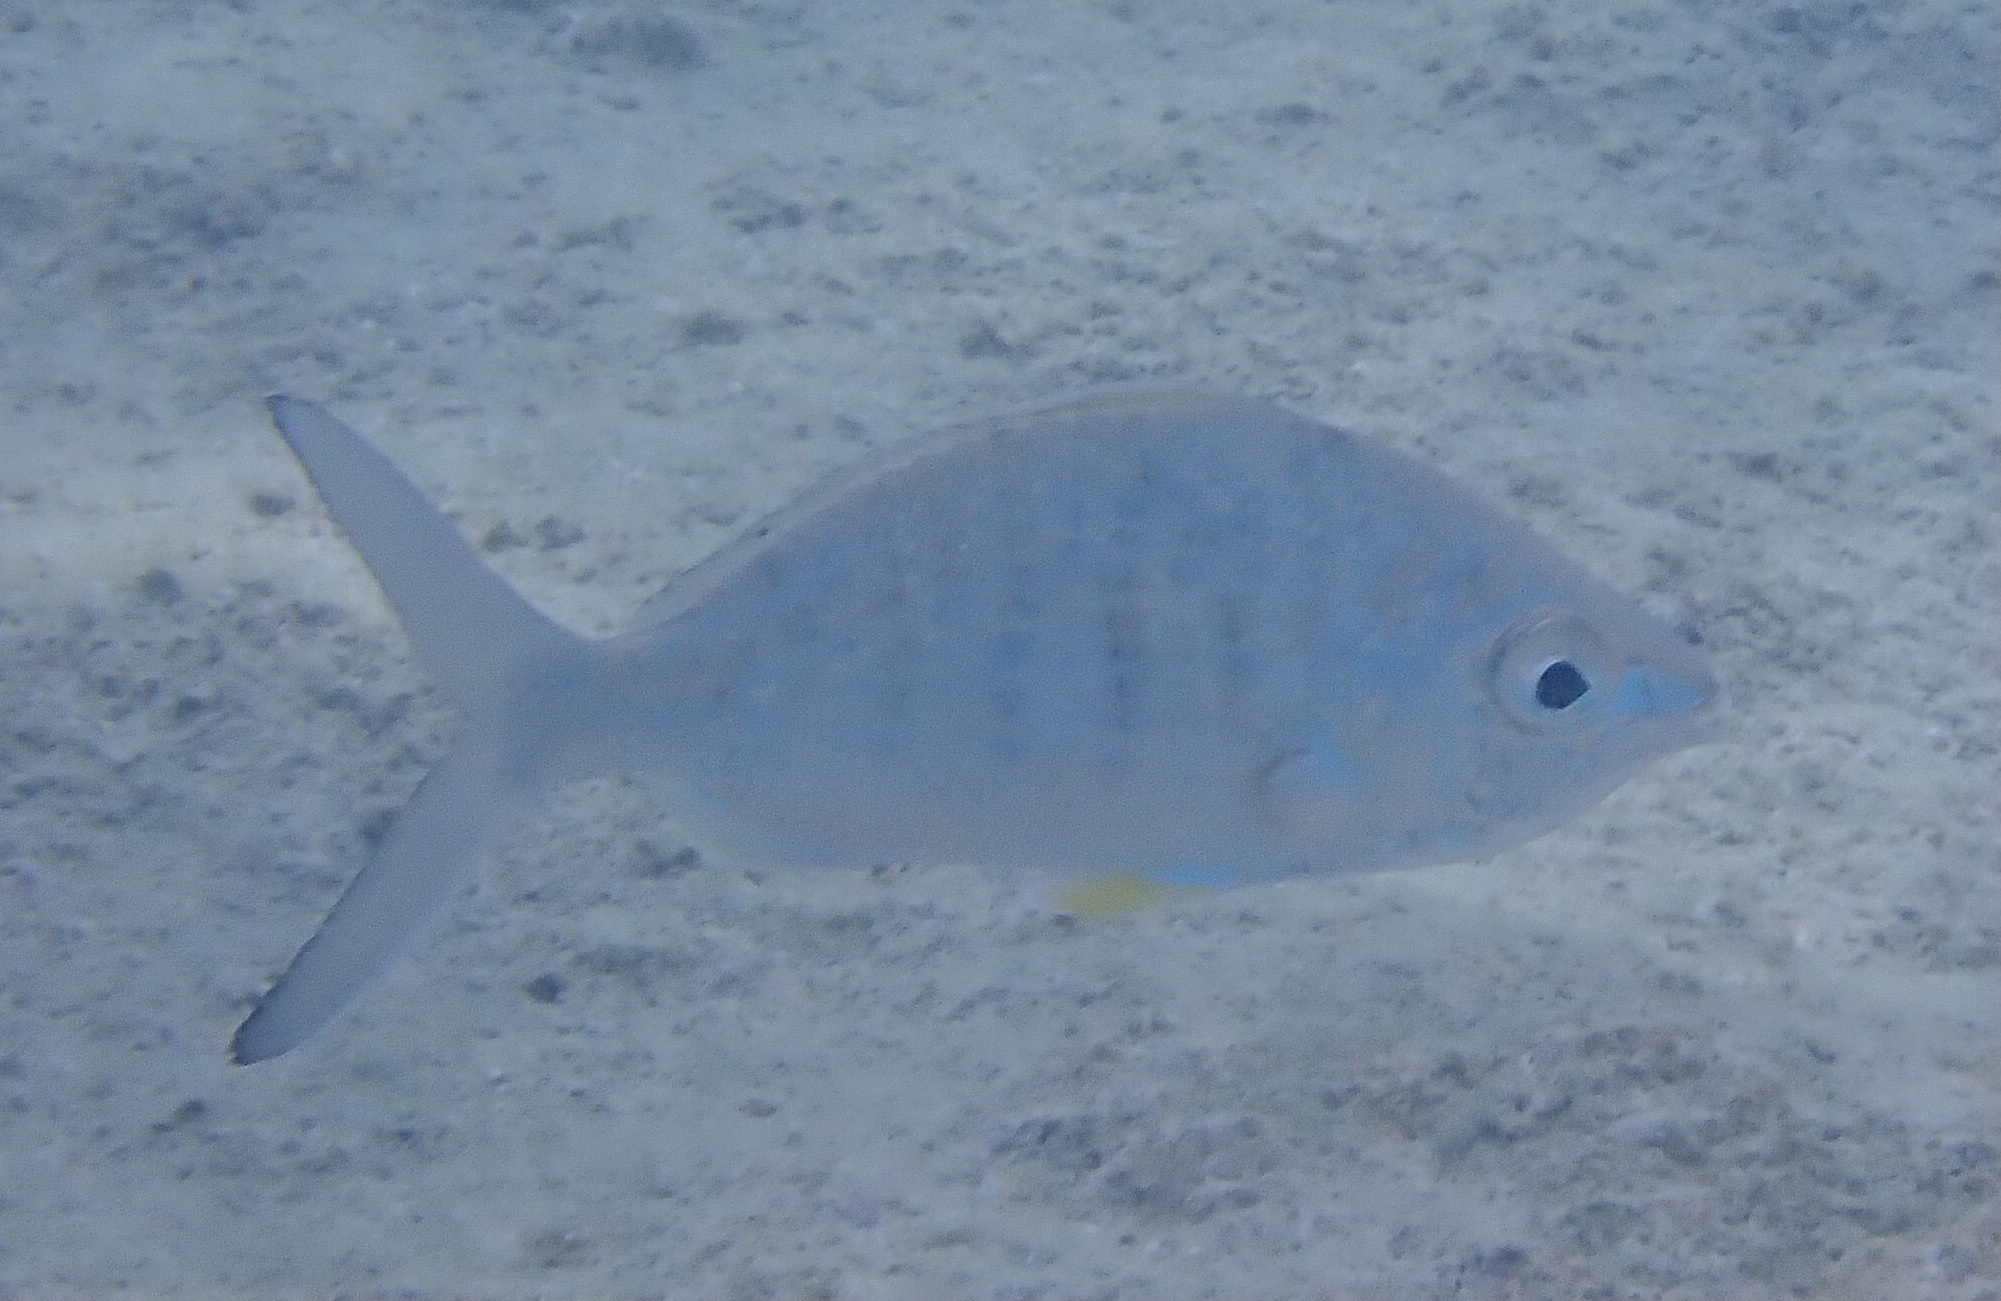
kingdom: Animalia
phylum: Chordata
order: Perciformes
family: Gerreidae
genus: Gerres
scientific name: Gerres cinereus
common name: Hedow
